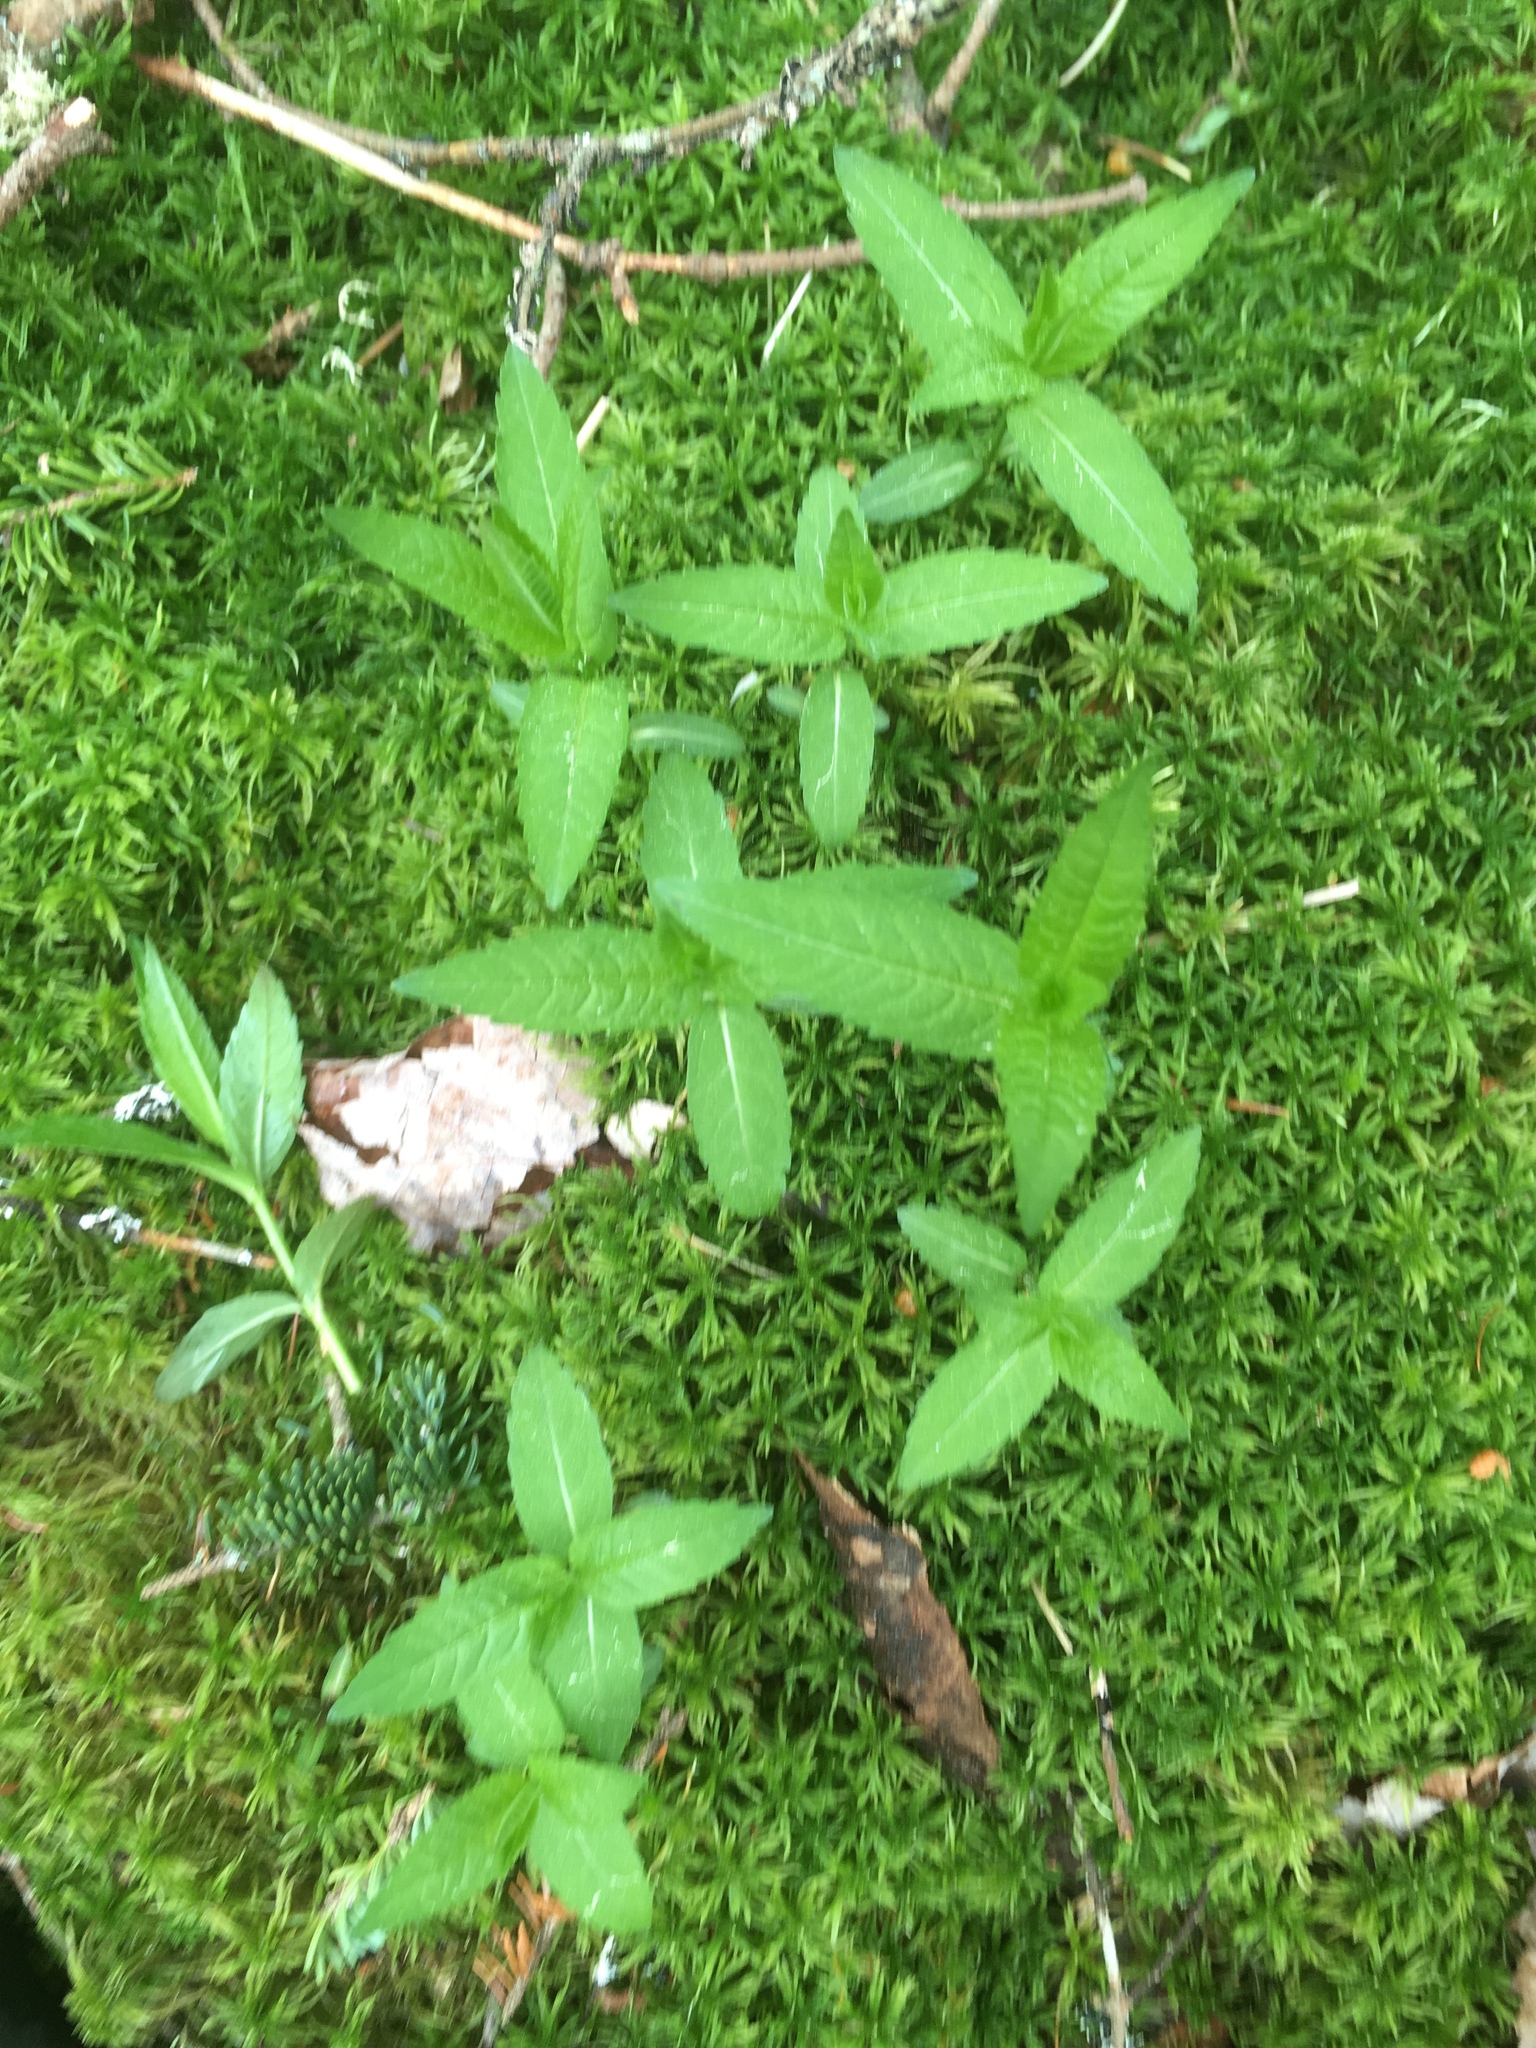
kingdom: Plantae
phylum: Tracheophyta
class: Magnoliopsida
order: Lamiales
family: Plantaginaceae
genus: Chelone
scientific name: Chelone glabra
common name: Snakehead
